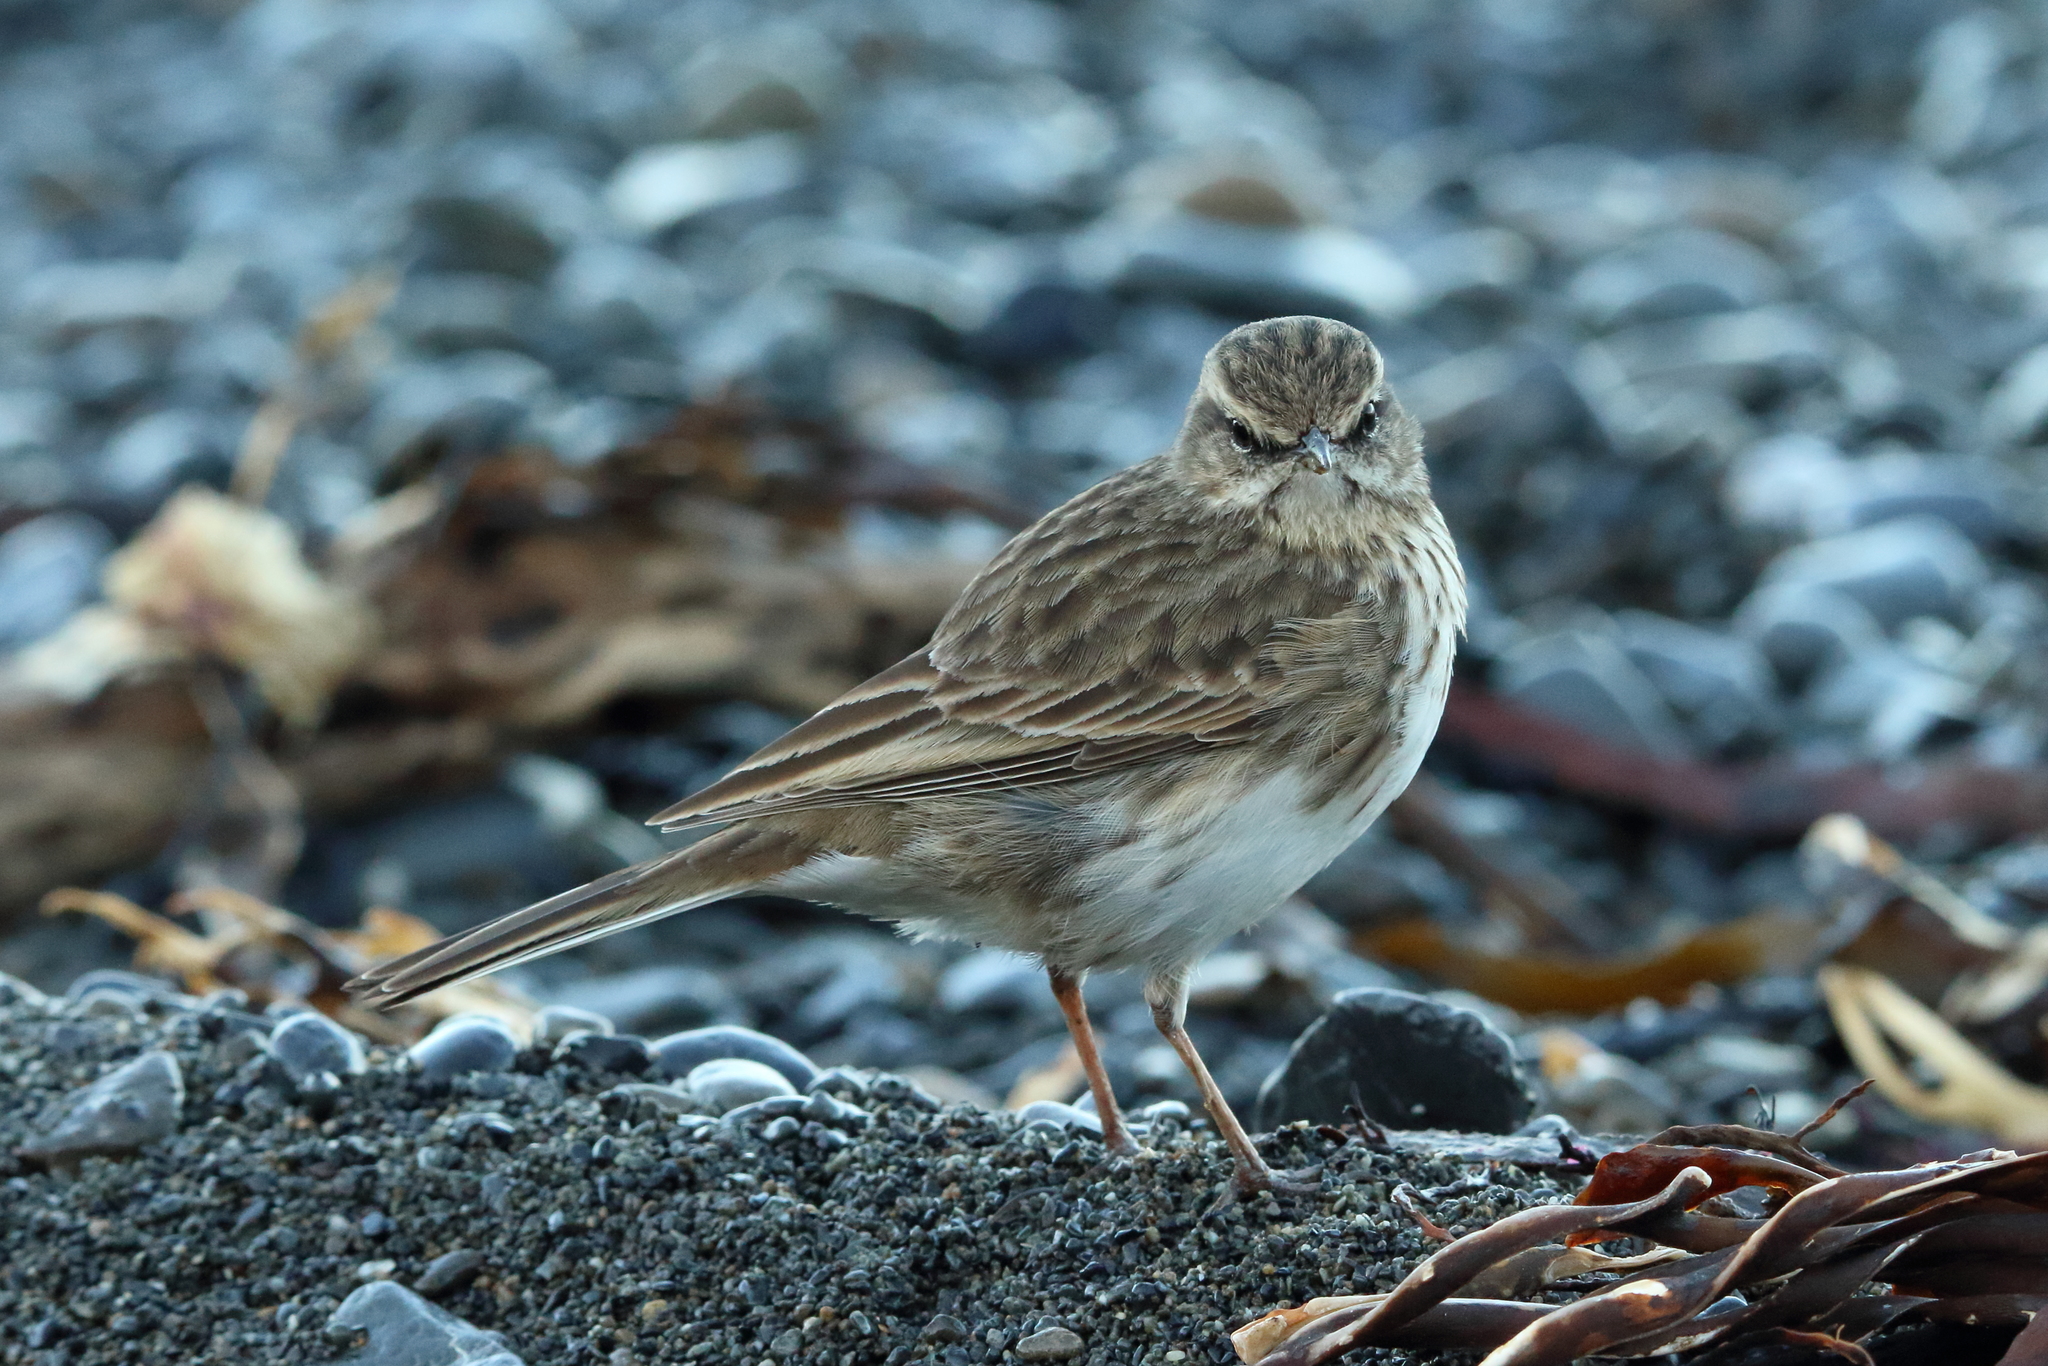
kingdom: Animalia
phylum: Chordata
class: Aves
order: Passeriformes
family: Motacillidae
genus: Anthus
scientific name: Anthus novaeseelandiae
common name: New zealand pipit
